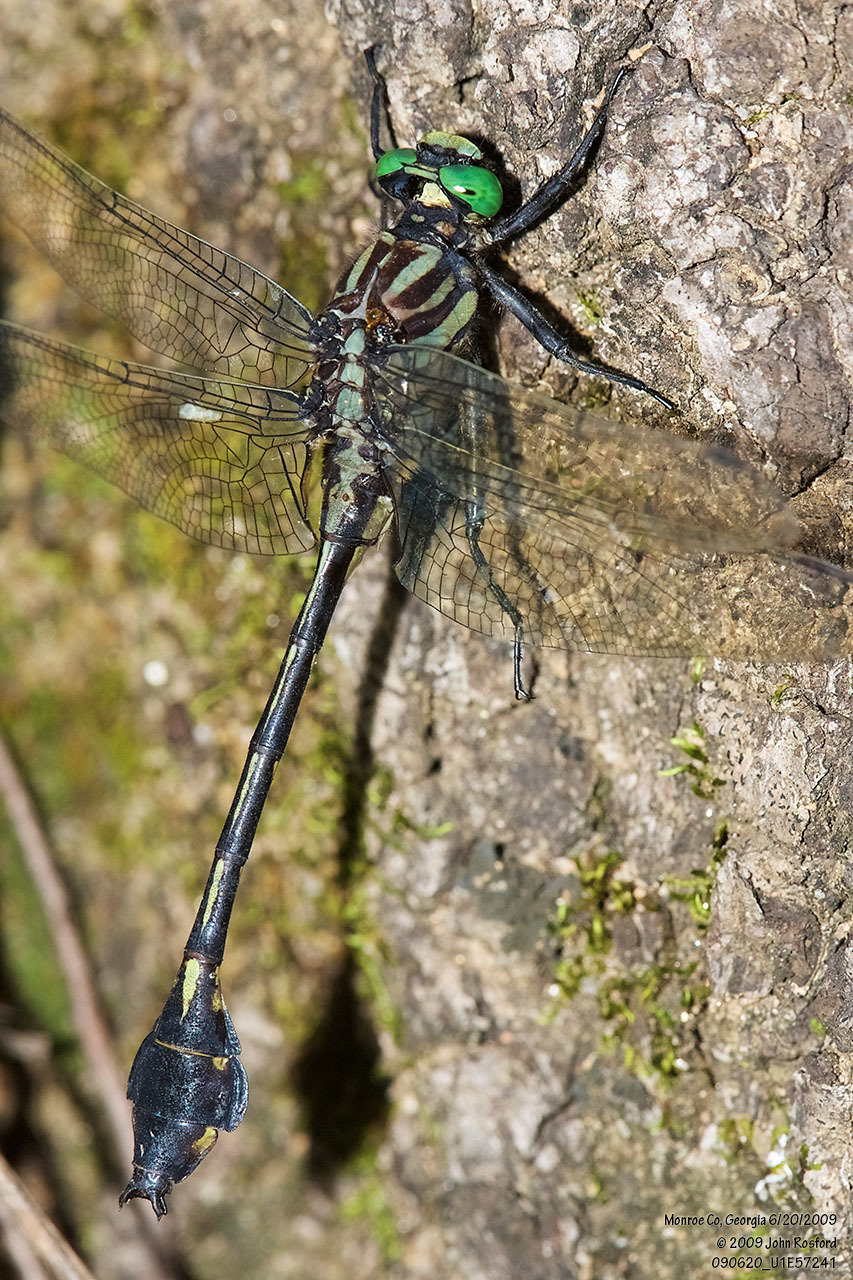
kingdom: Animalia
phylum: Arthropoda
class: Insecta
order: Odonata
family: Gomphidae
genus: Gomphurus
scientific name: Gomphurus dilatatus
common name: Blackwater clubtail
